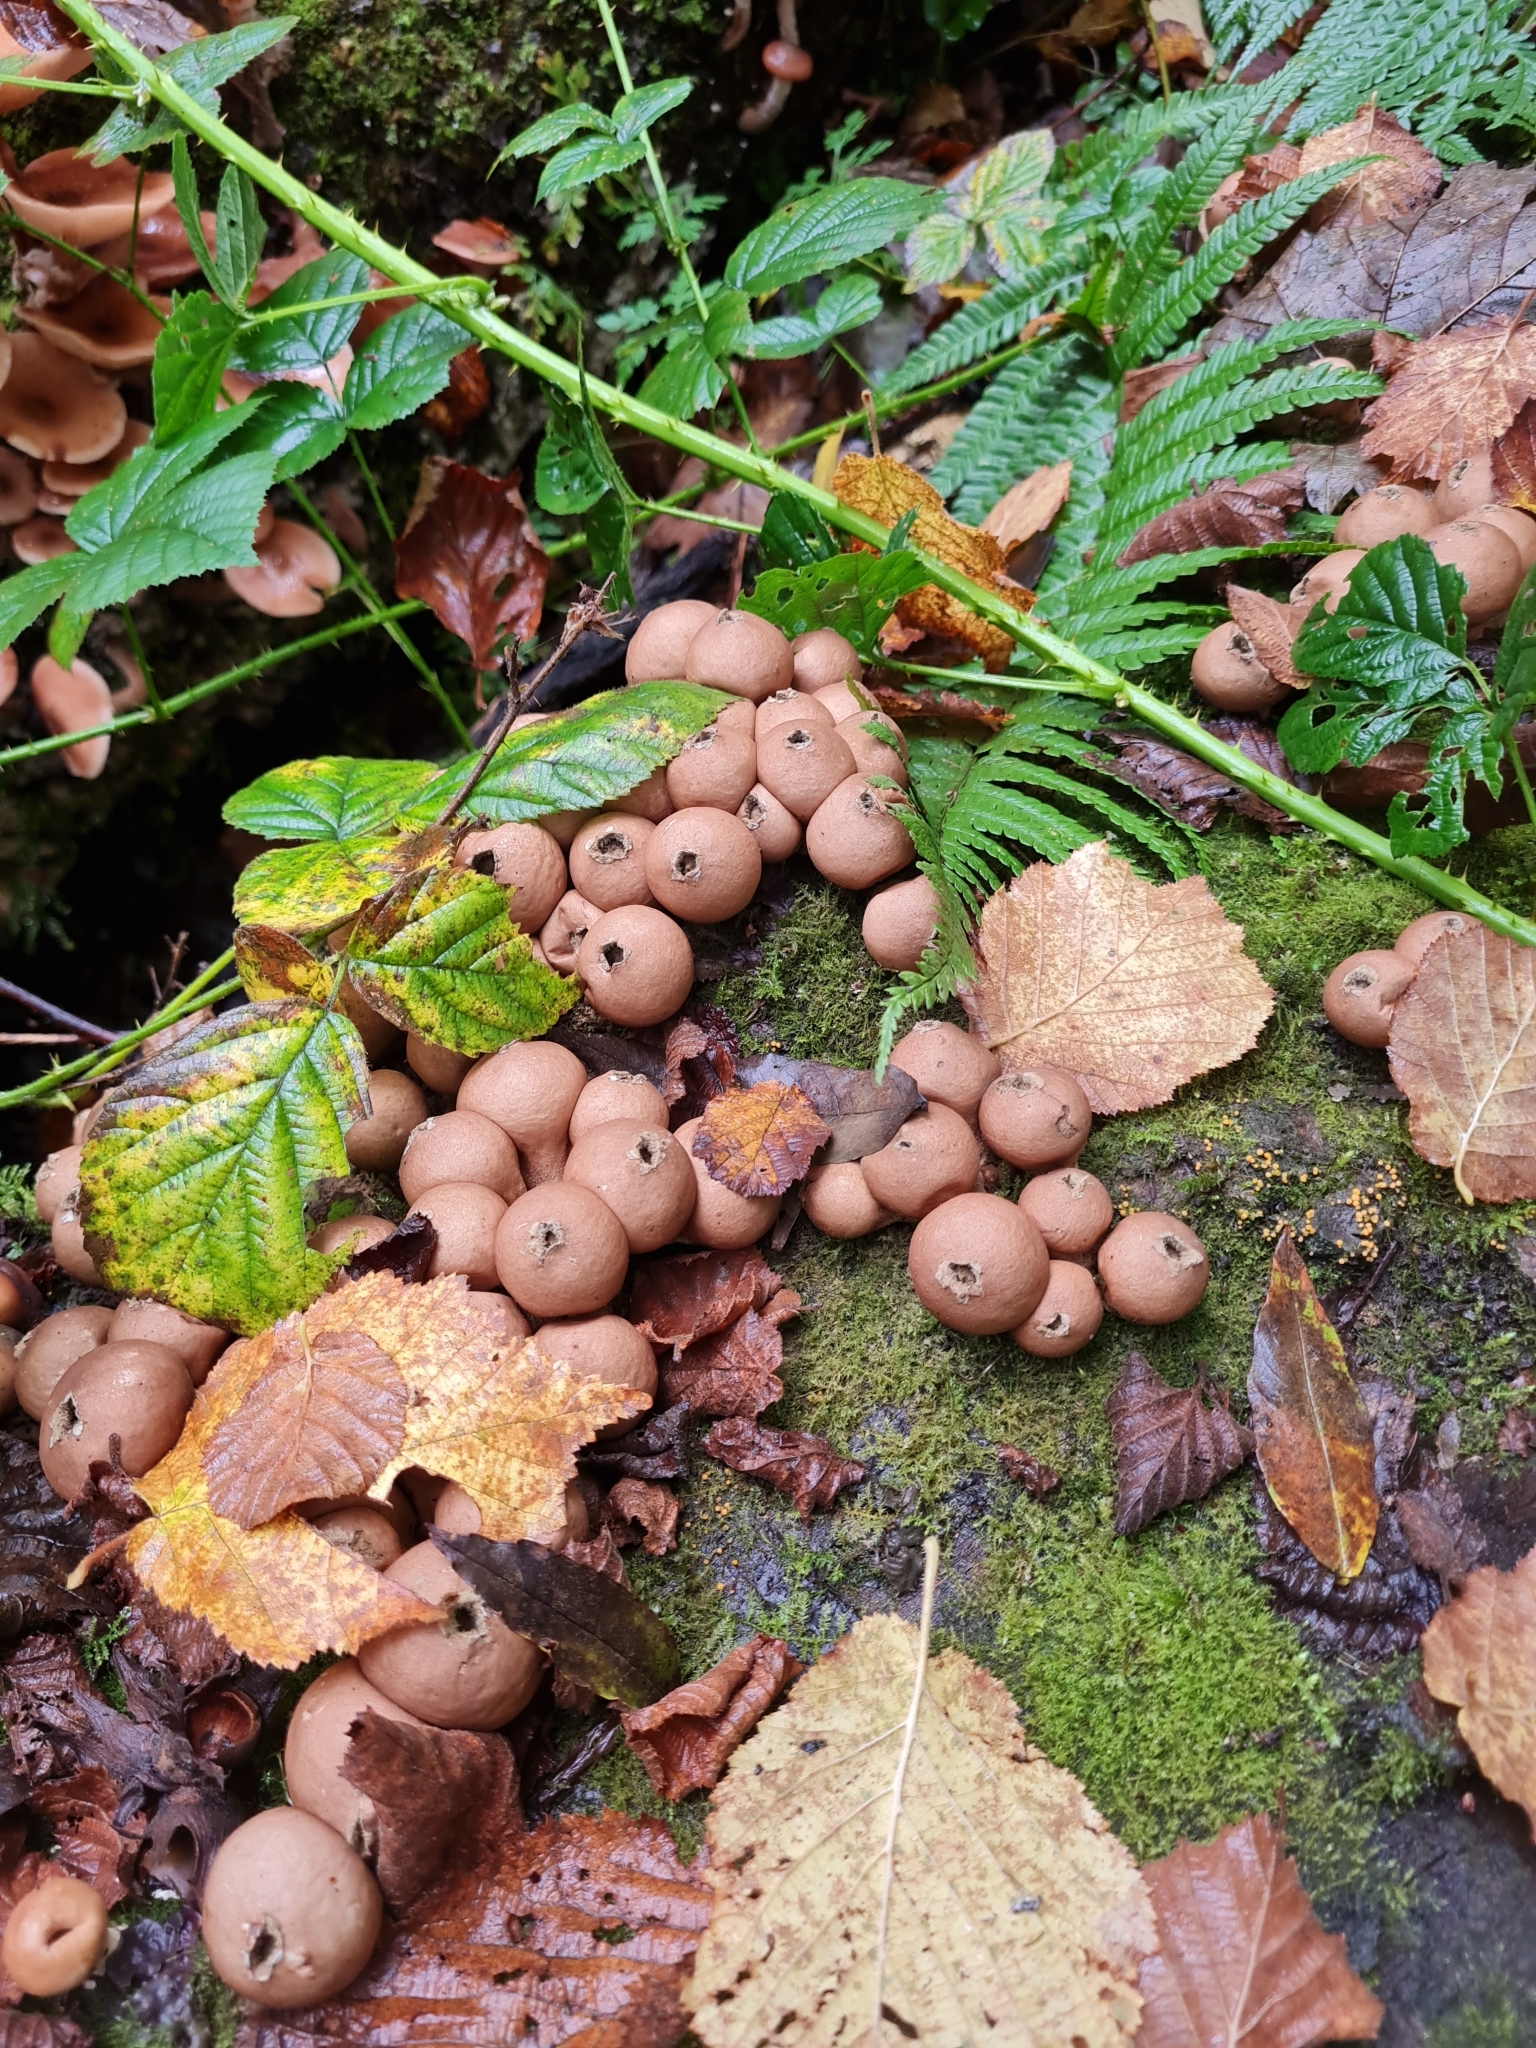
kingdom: Fungi
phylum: Basidiomycota
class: Agaricomycetes
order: Agaricales
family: Lycoperdaceae
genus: Apioperdon
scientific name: Apioperdon pyriforme
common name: Pear-shaped puffball
